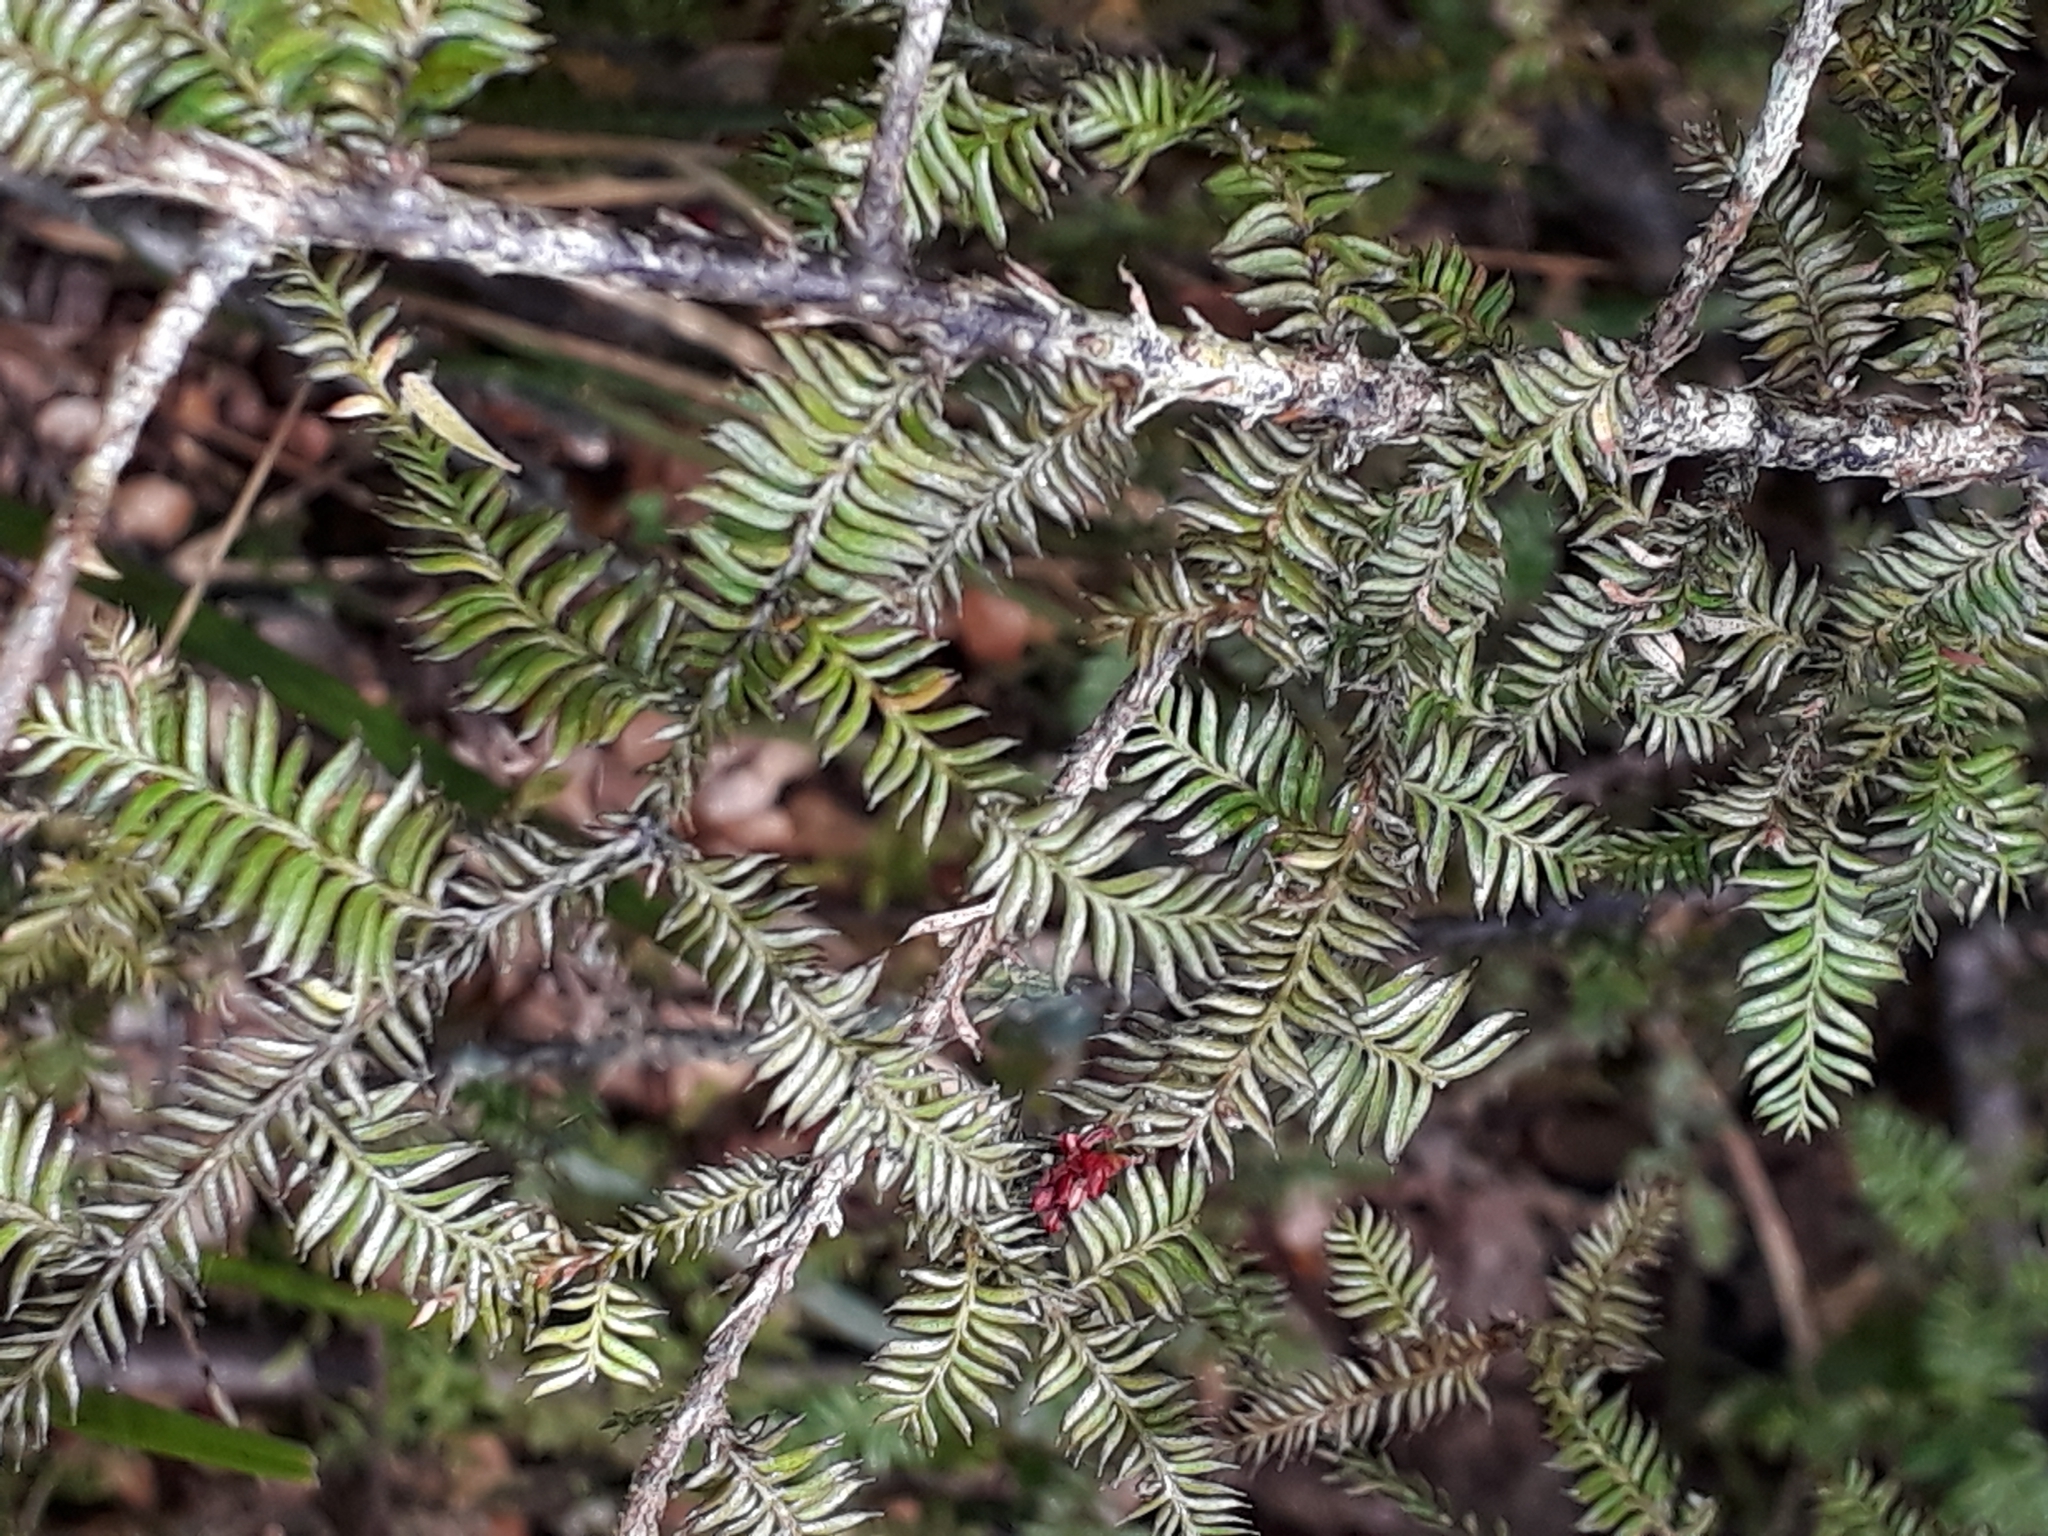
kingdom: Plantae
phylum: Tracheophyta
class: Pinopsida
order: Pinales
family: Podocarpaceae
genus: Dacrycarpus
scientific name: Dacrycarpus dacrydioides
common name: White pine
